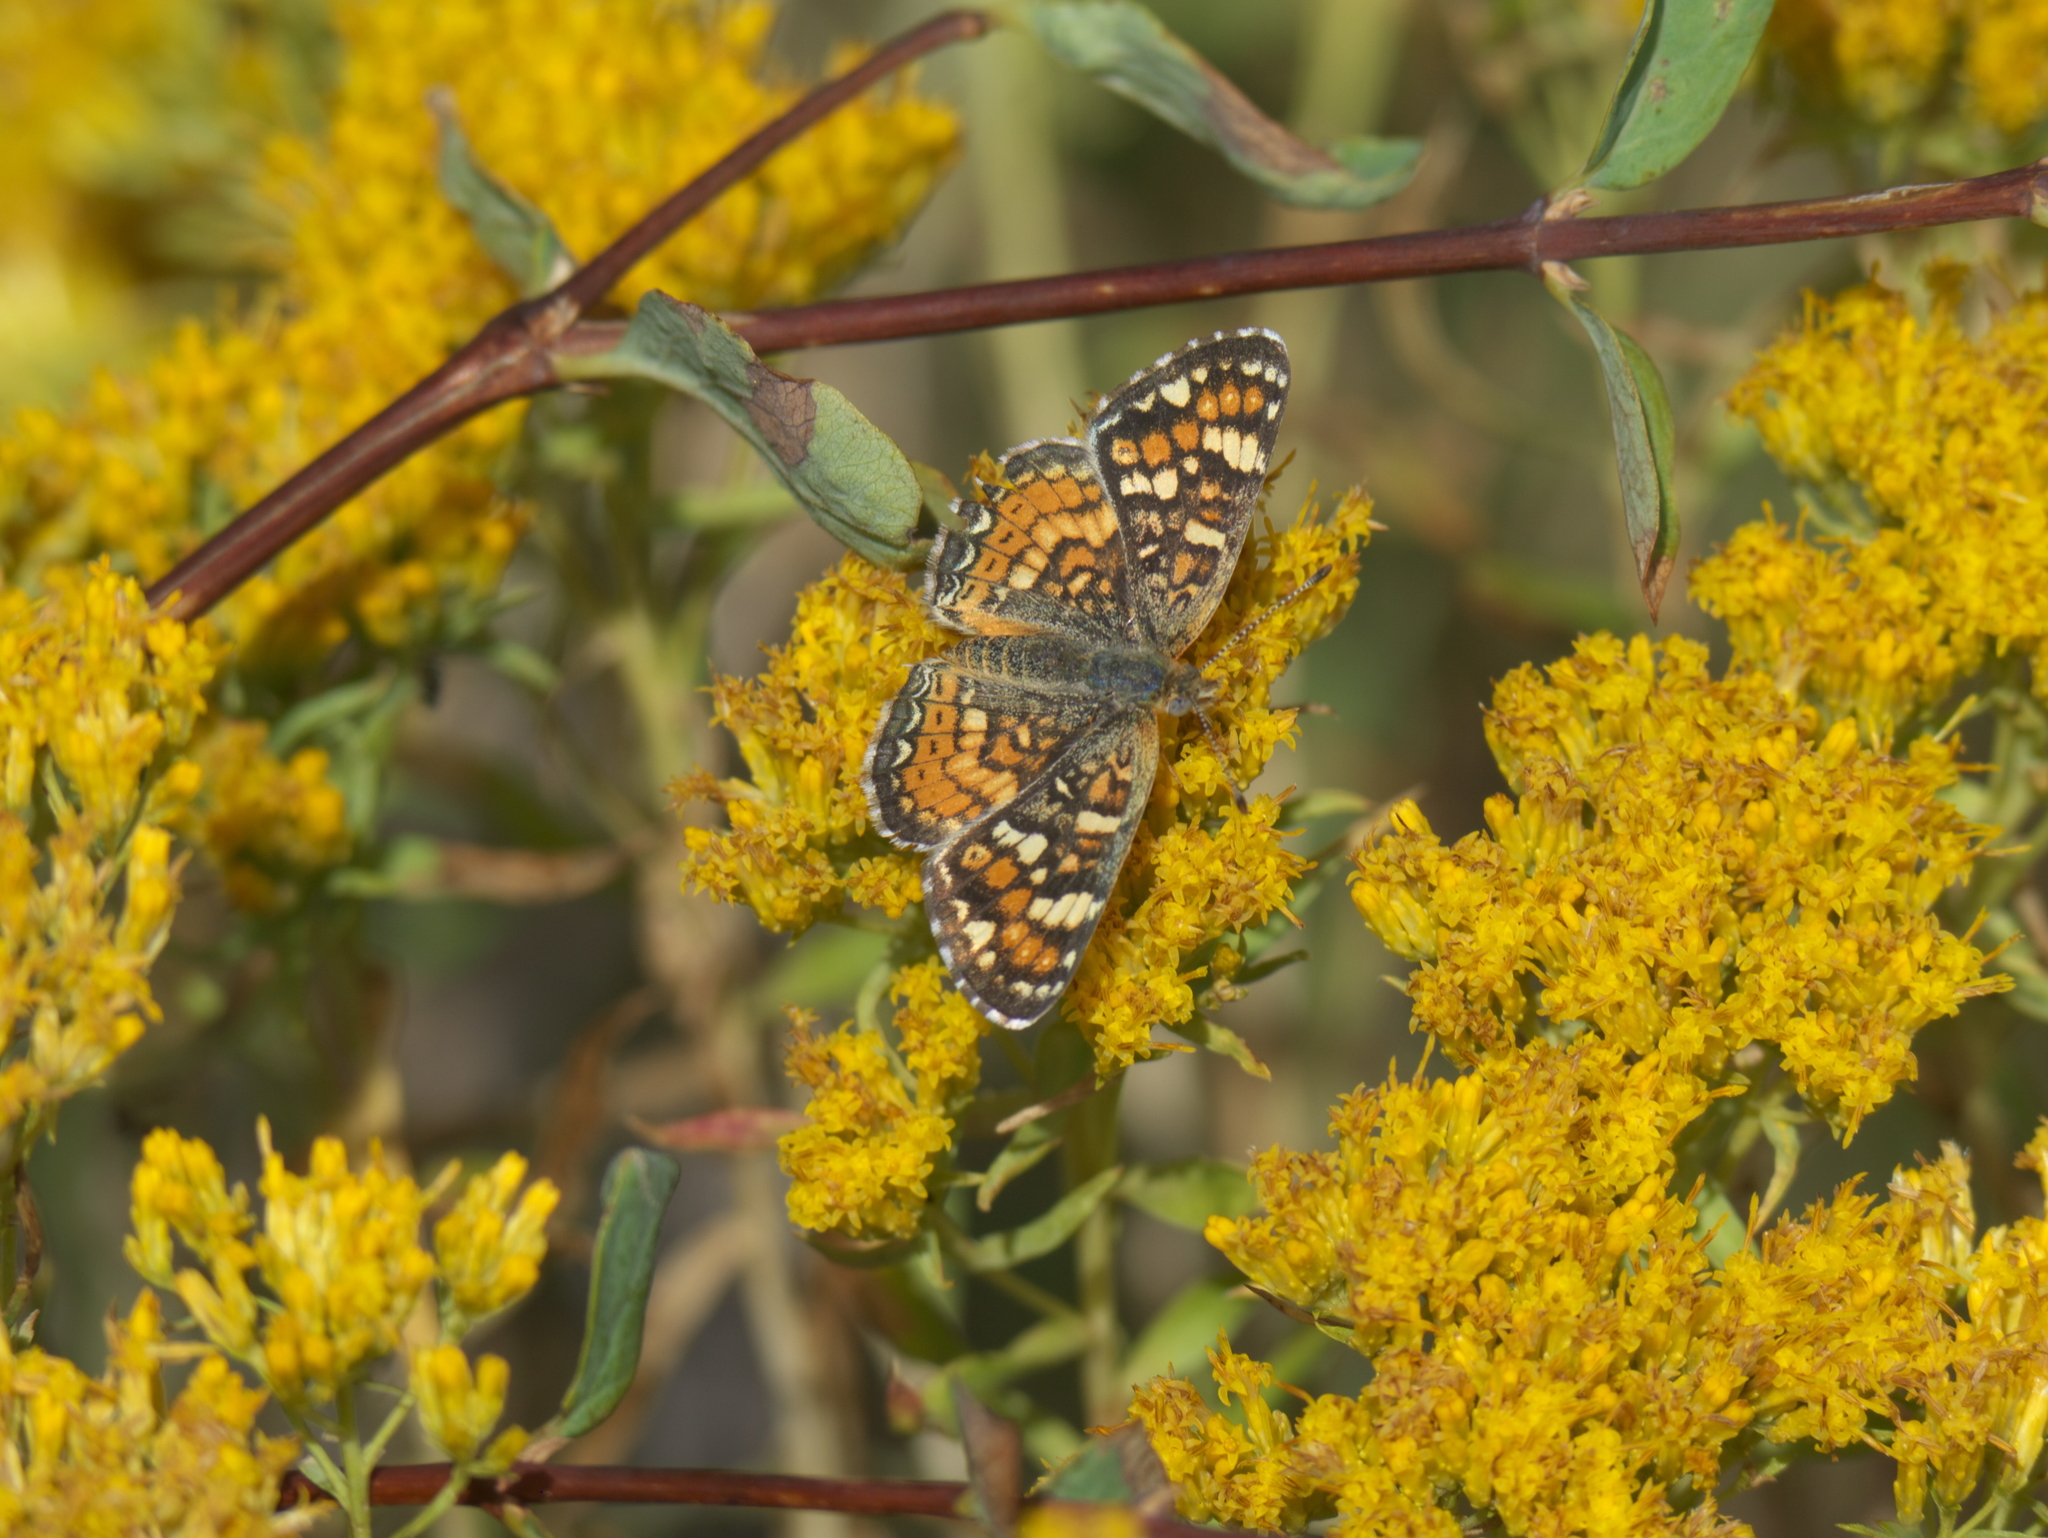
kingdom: Plantae
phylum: Tracheophyta
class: Magnoliopsida
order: Asterales
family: Asteraceae
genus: Chrysothamnus
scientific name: Chrysothamnus viscidiflorus
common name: Yellow rabbitbrush
